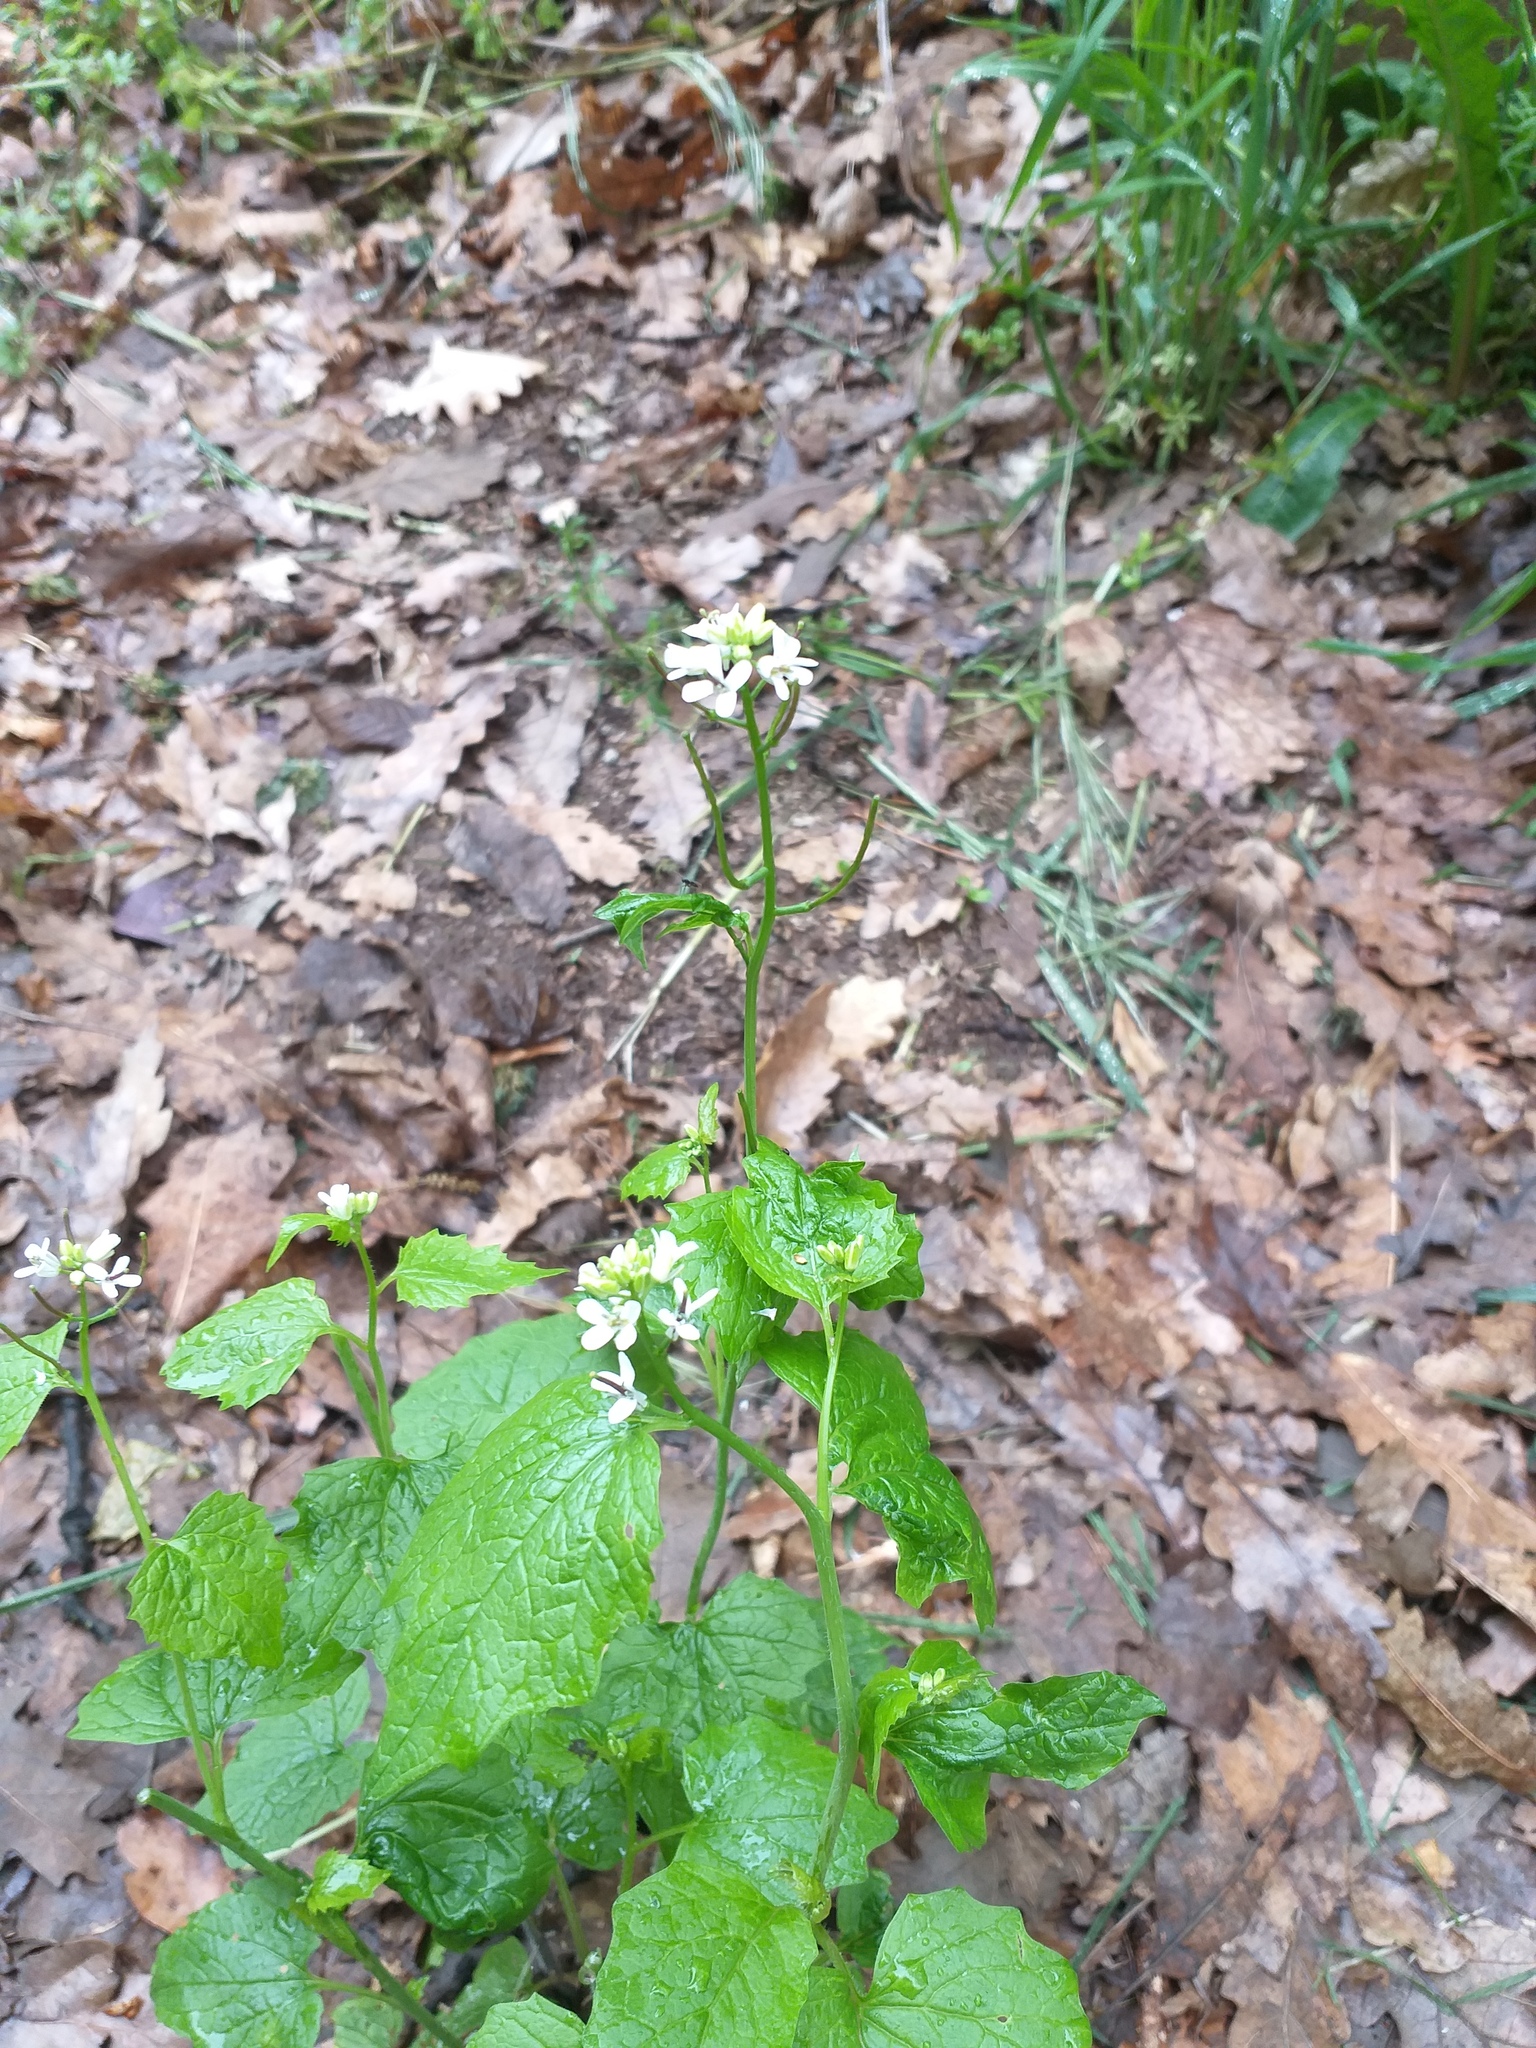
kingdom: Plantae
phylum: Tracheophyta
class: Magnoliopsida
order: Brassicales
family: Brassicaceae
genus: Alliaria
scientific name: Alliaria petiolata
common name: Garlic mustard
